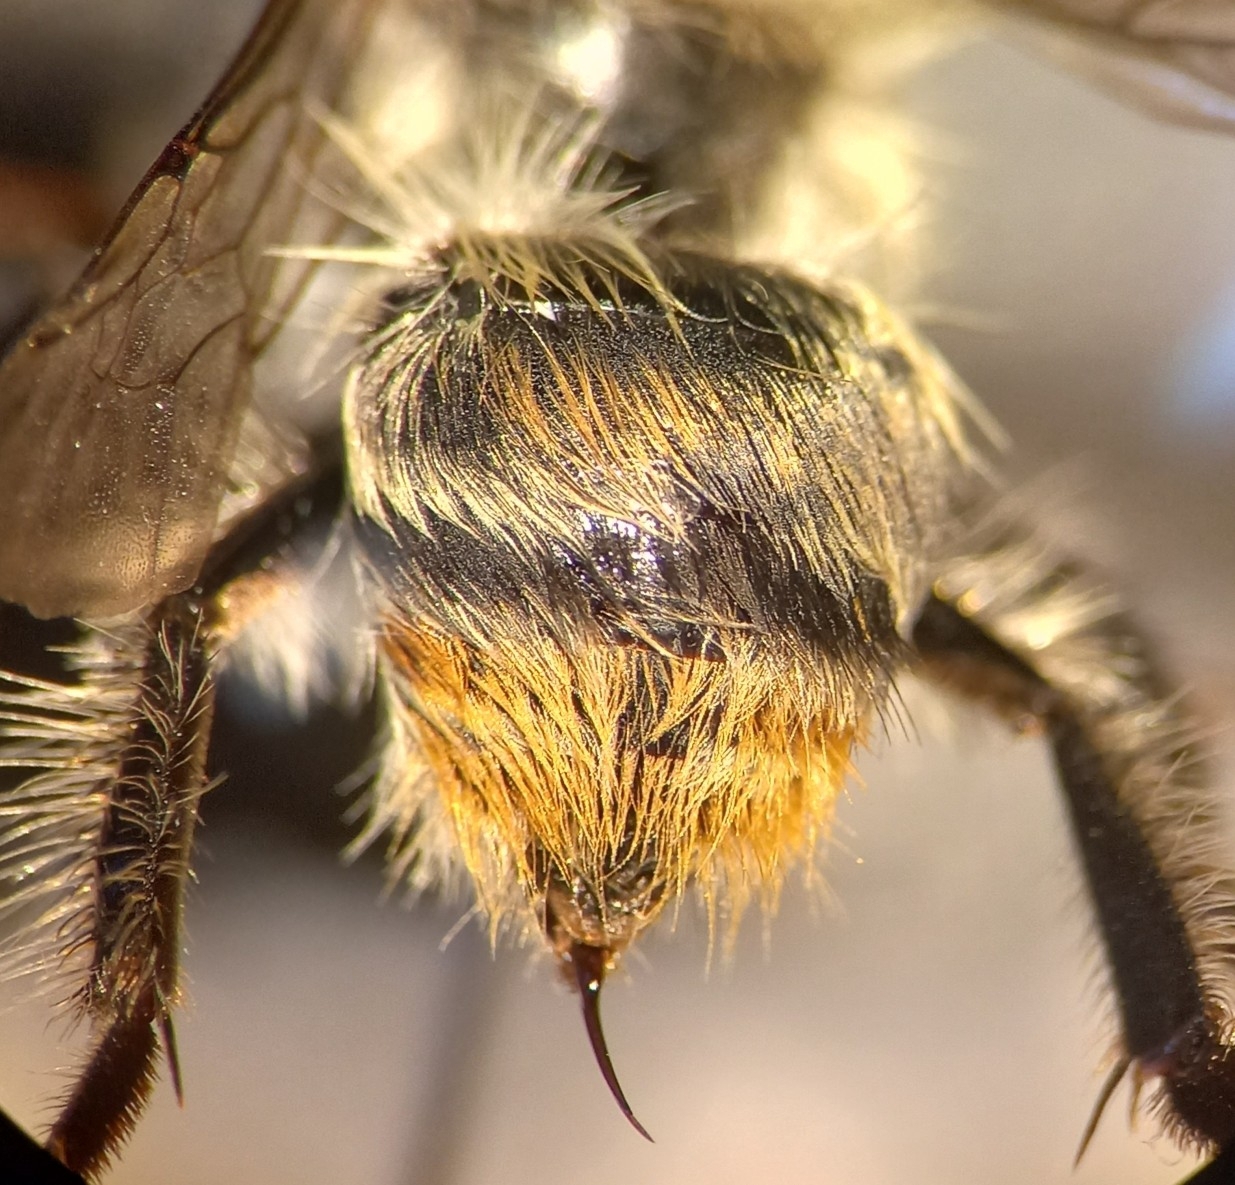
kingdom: Animalia
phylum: Arthropoda
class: Insecta
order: Hymenoptera
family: Apidae
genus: Bombus
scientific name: Bombus sylvarum
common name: Shrill carder bee
